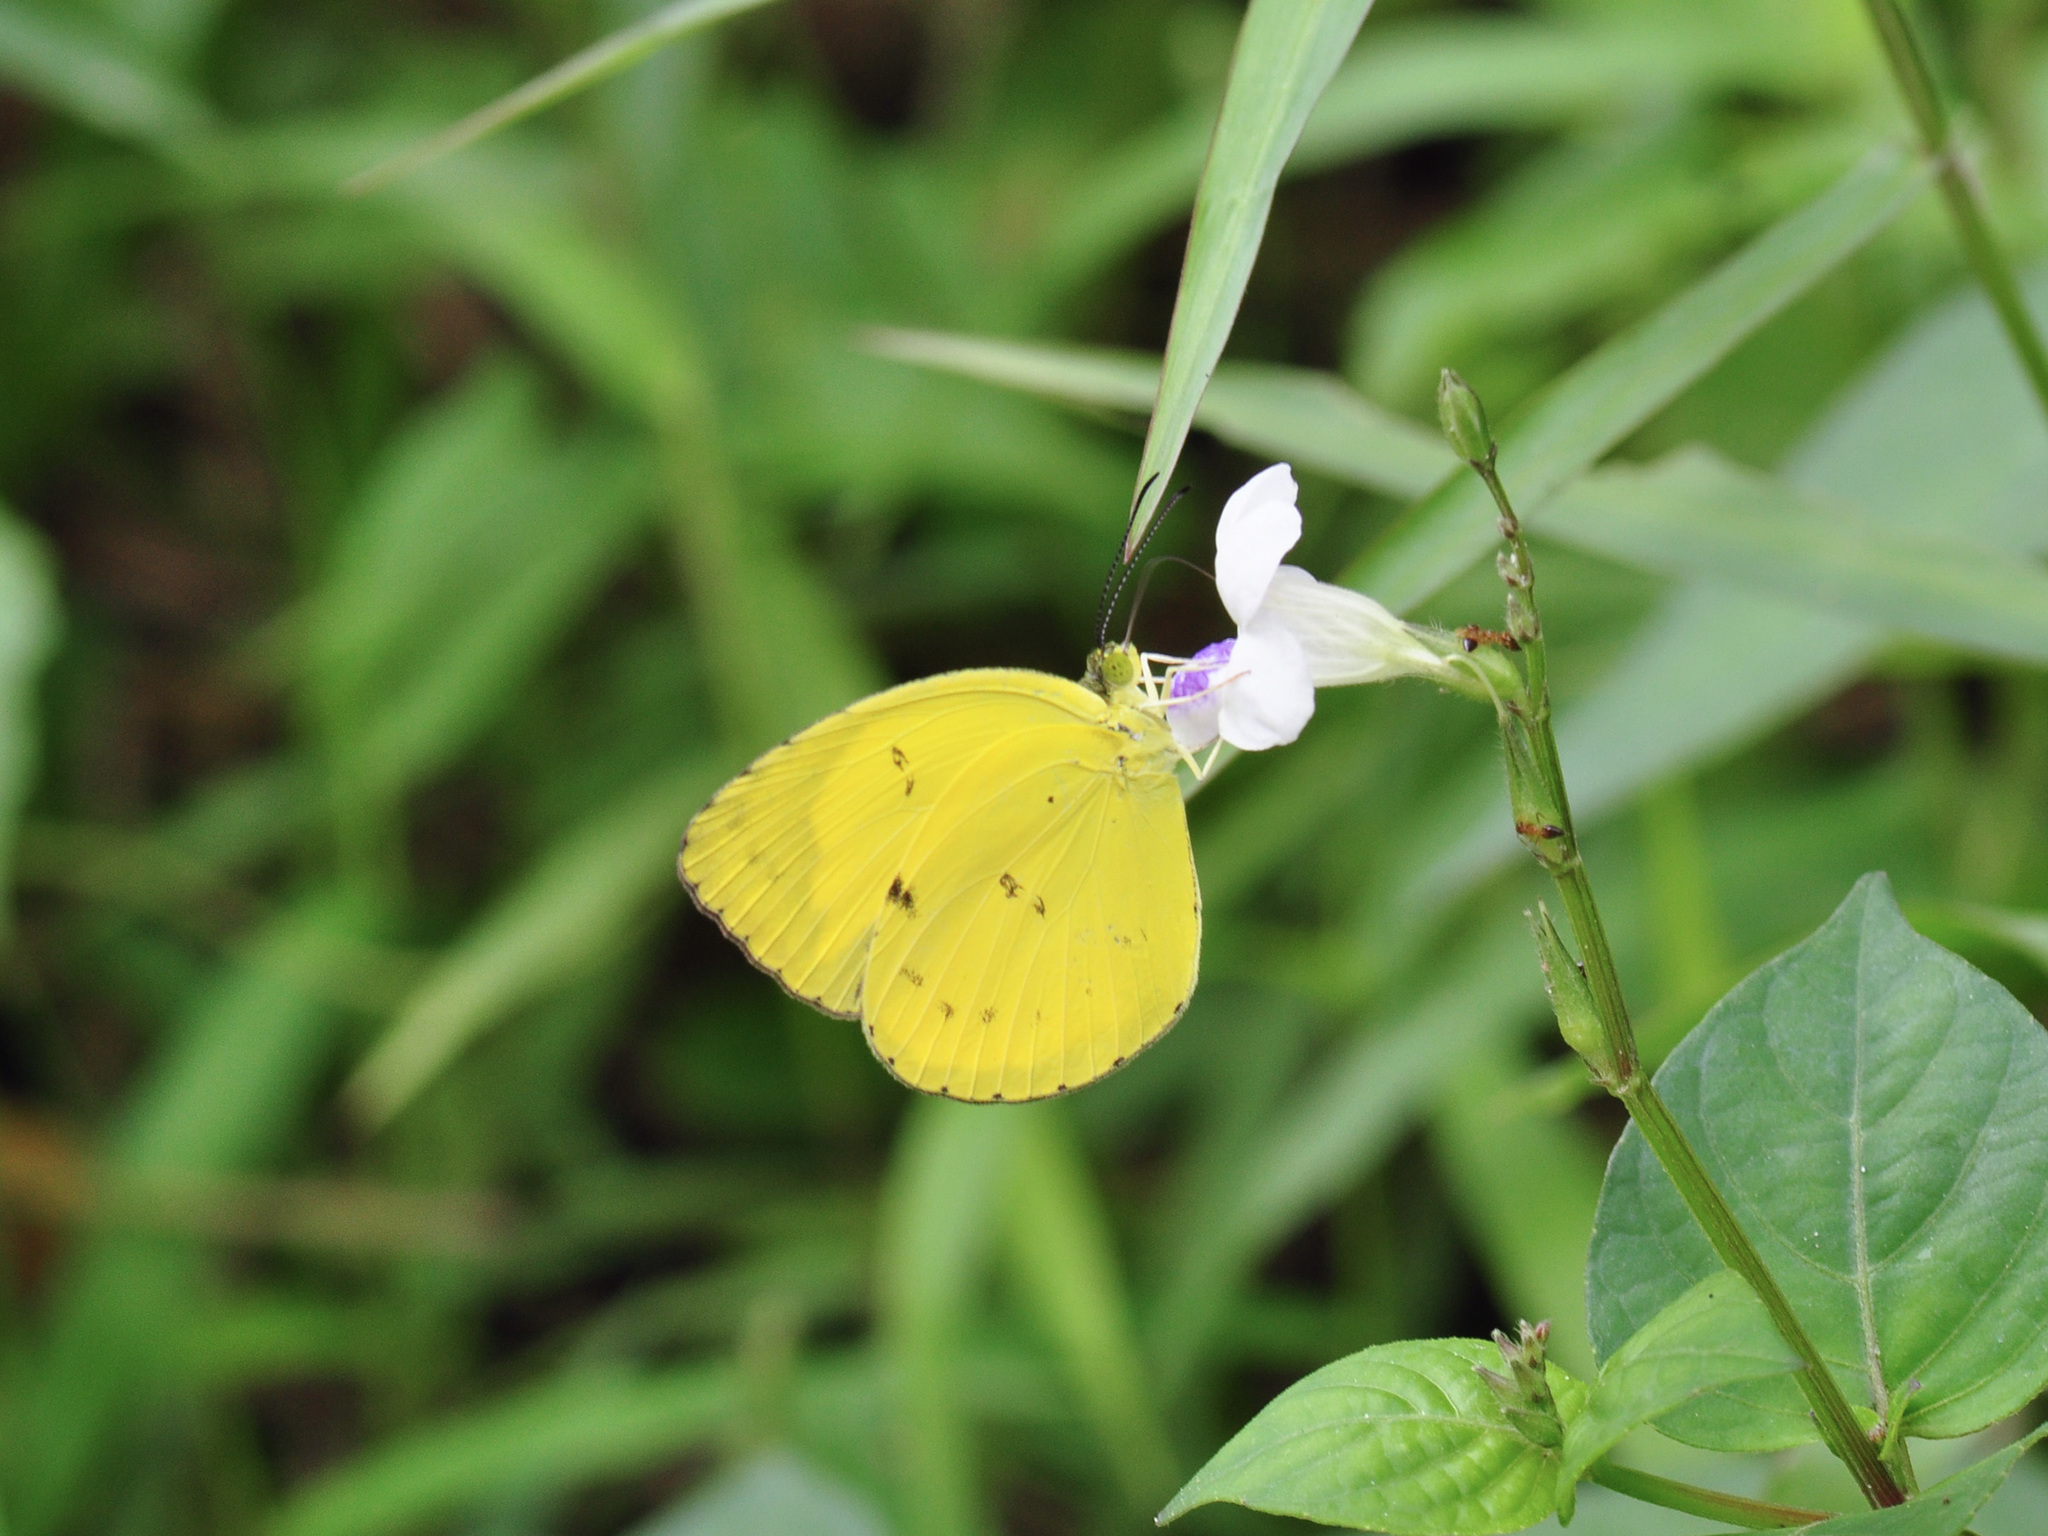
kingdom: Animalia
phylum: Arthropoda
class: Insecta
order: Lepidoptera
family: Pieridae
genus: Eurema
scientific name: Eurema nicevillei
